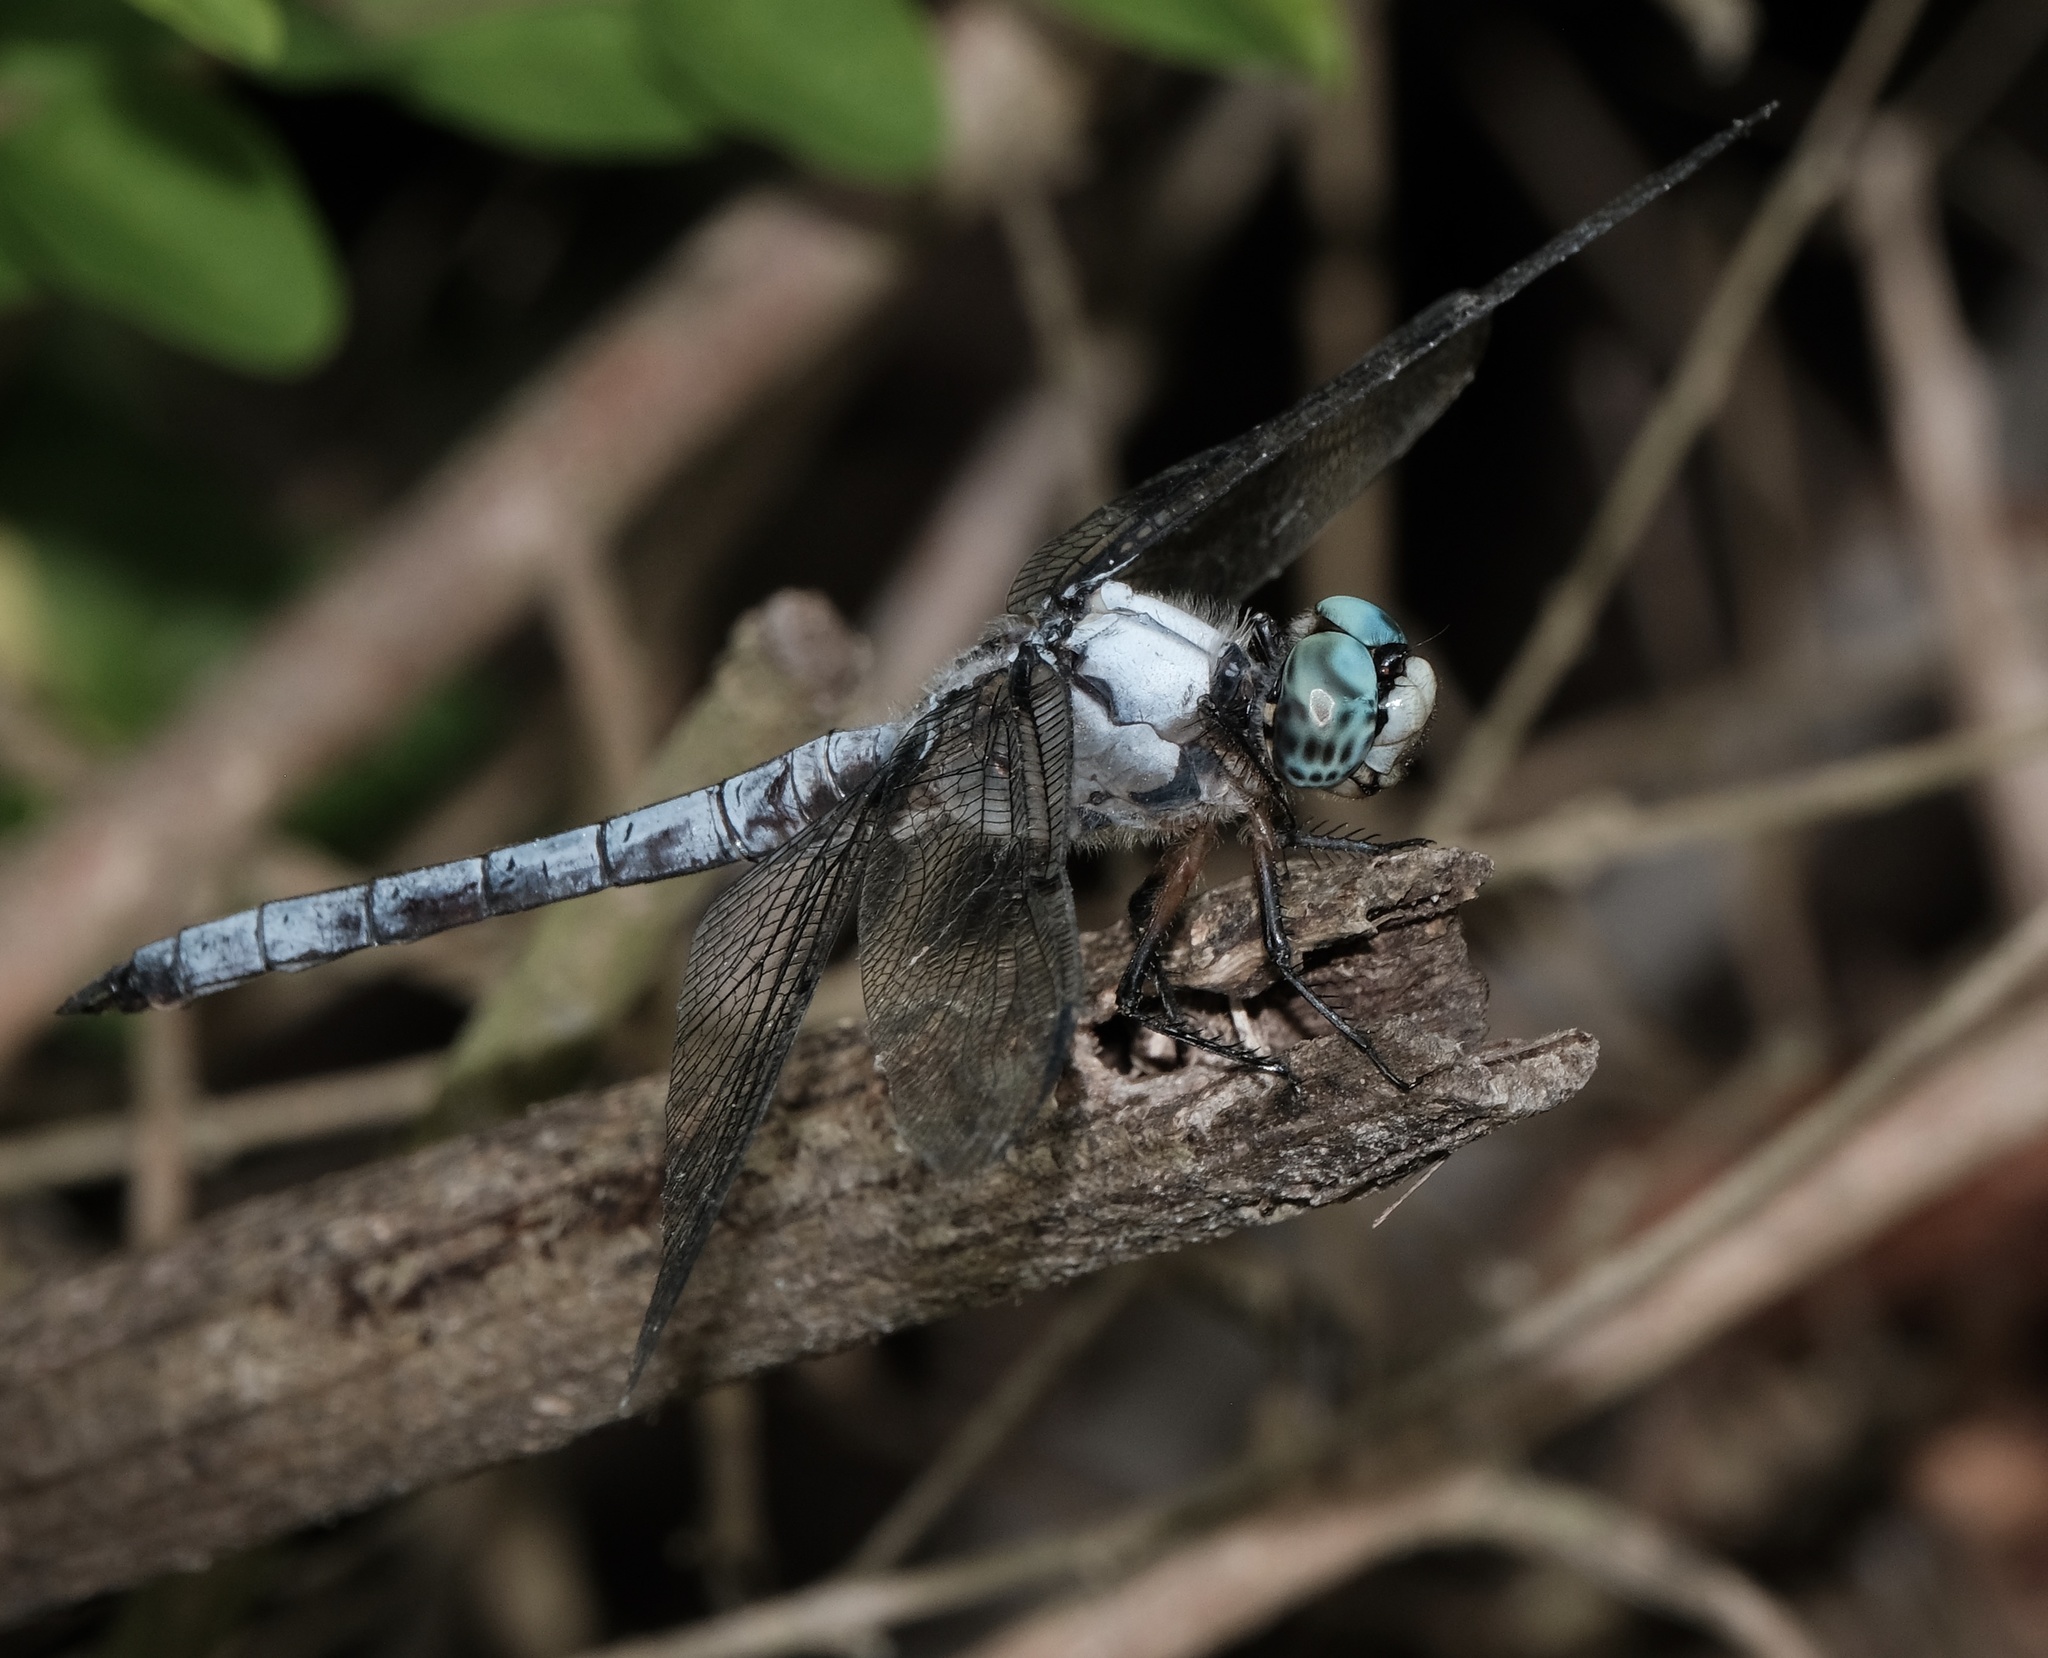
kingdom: Animalia
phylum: Arthropoda
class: Insecta
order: Odonata
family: Libellulidae
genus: Libellula
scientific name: Libellula vibrans
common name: Great blue skimmer
